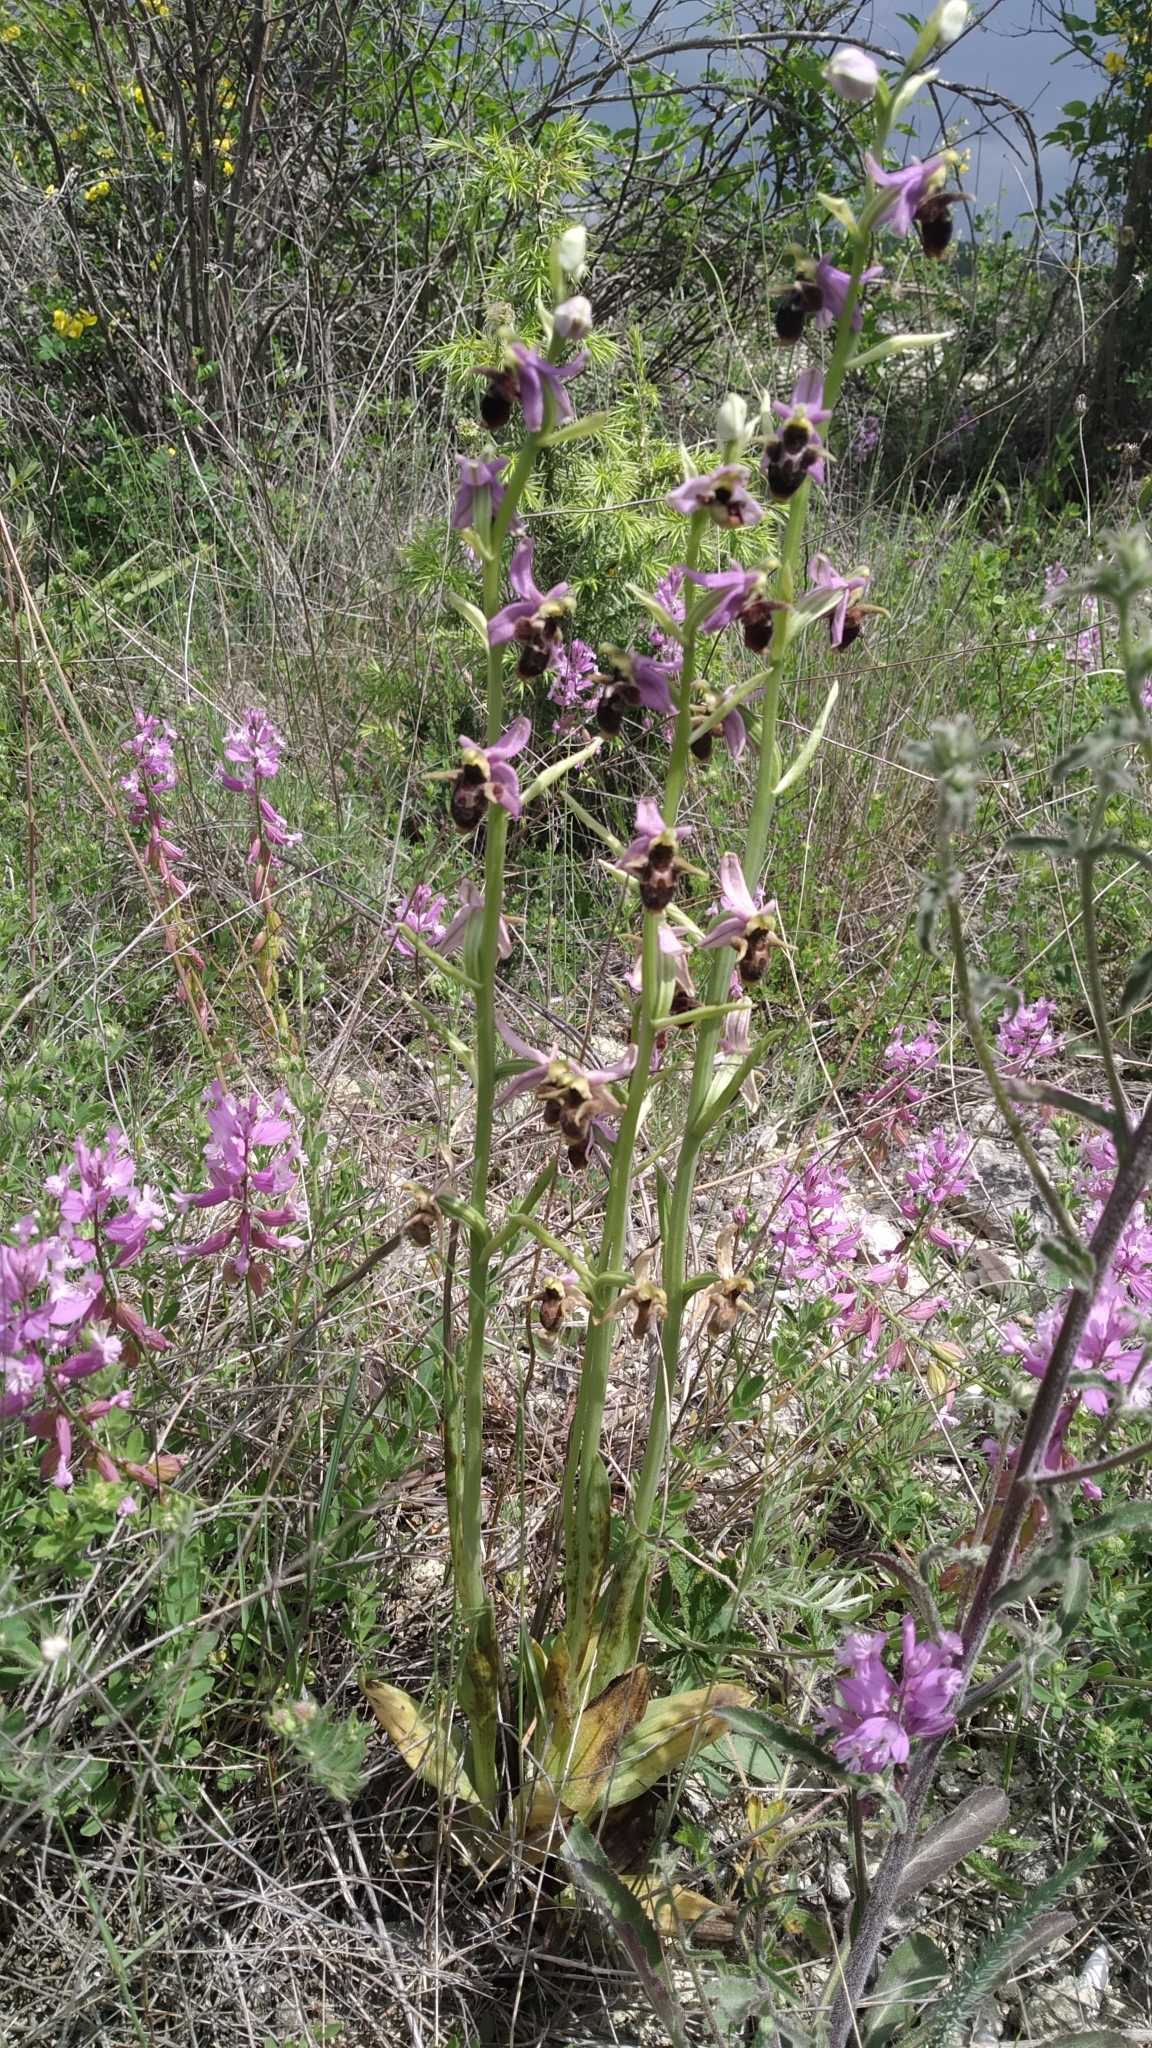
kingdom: Plantae
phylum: Tracheophyta
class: Liliopsida
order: Asparagales
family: Orchidaceae
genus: Ophrys
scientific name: Ophrys
